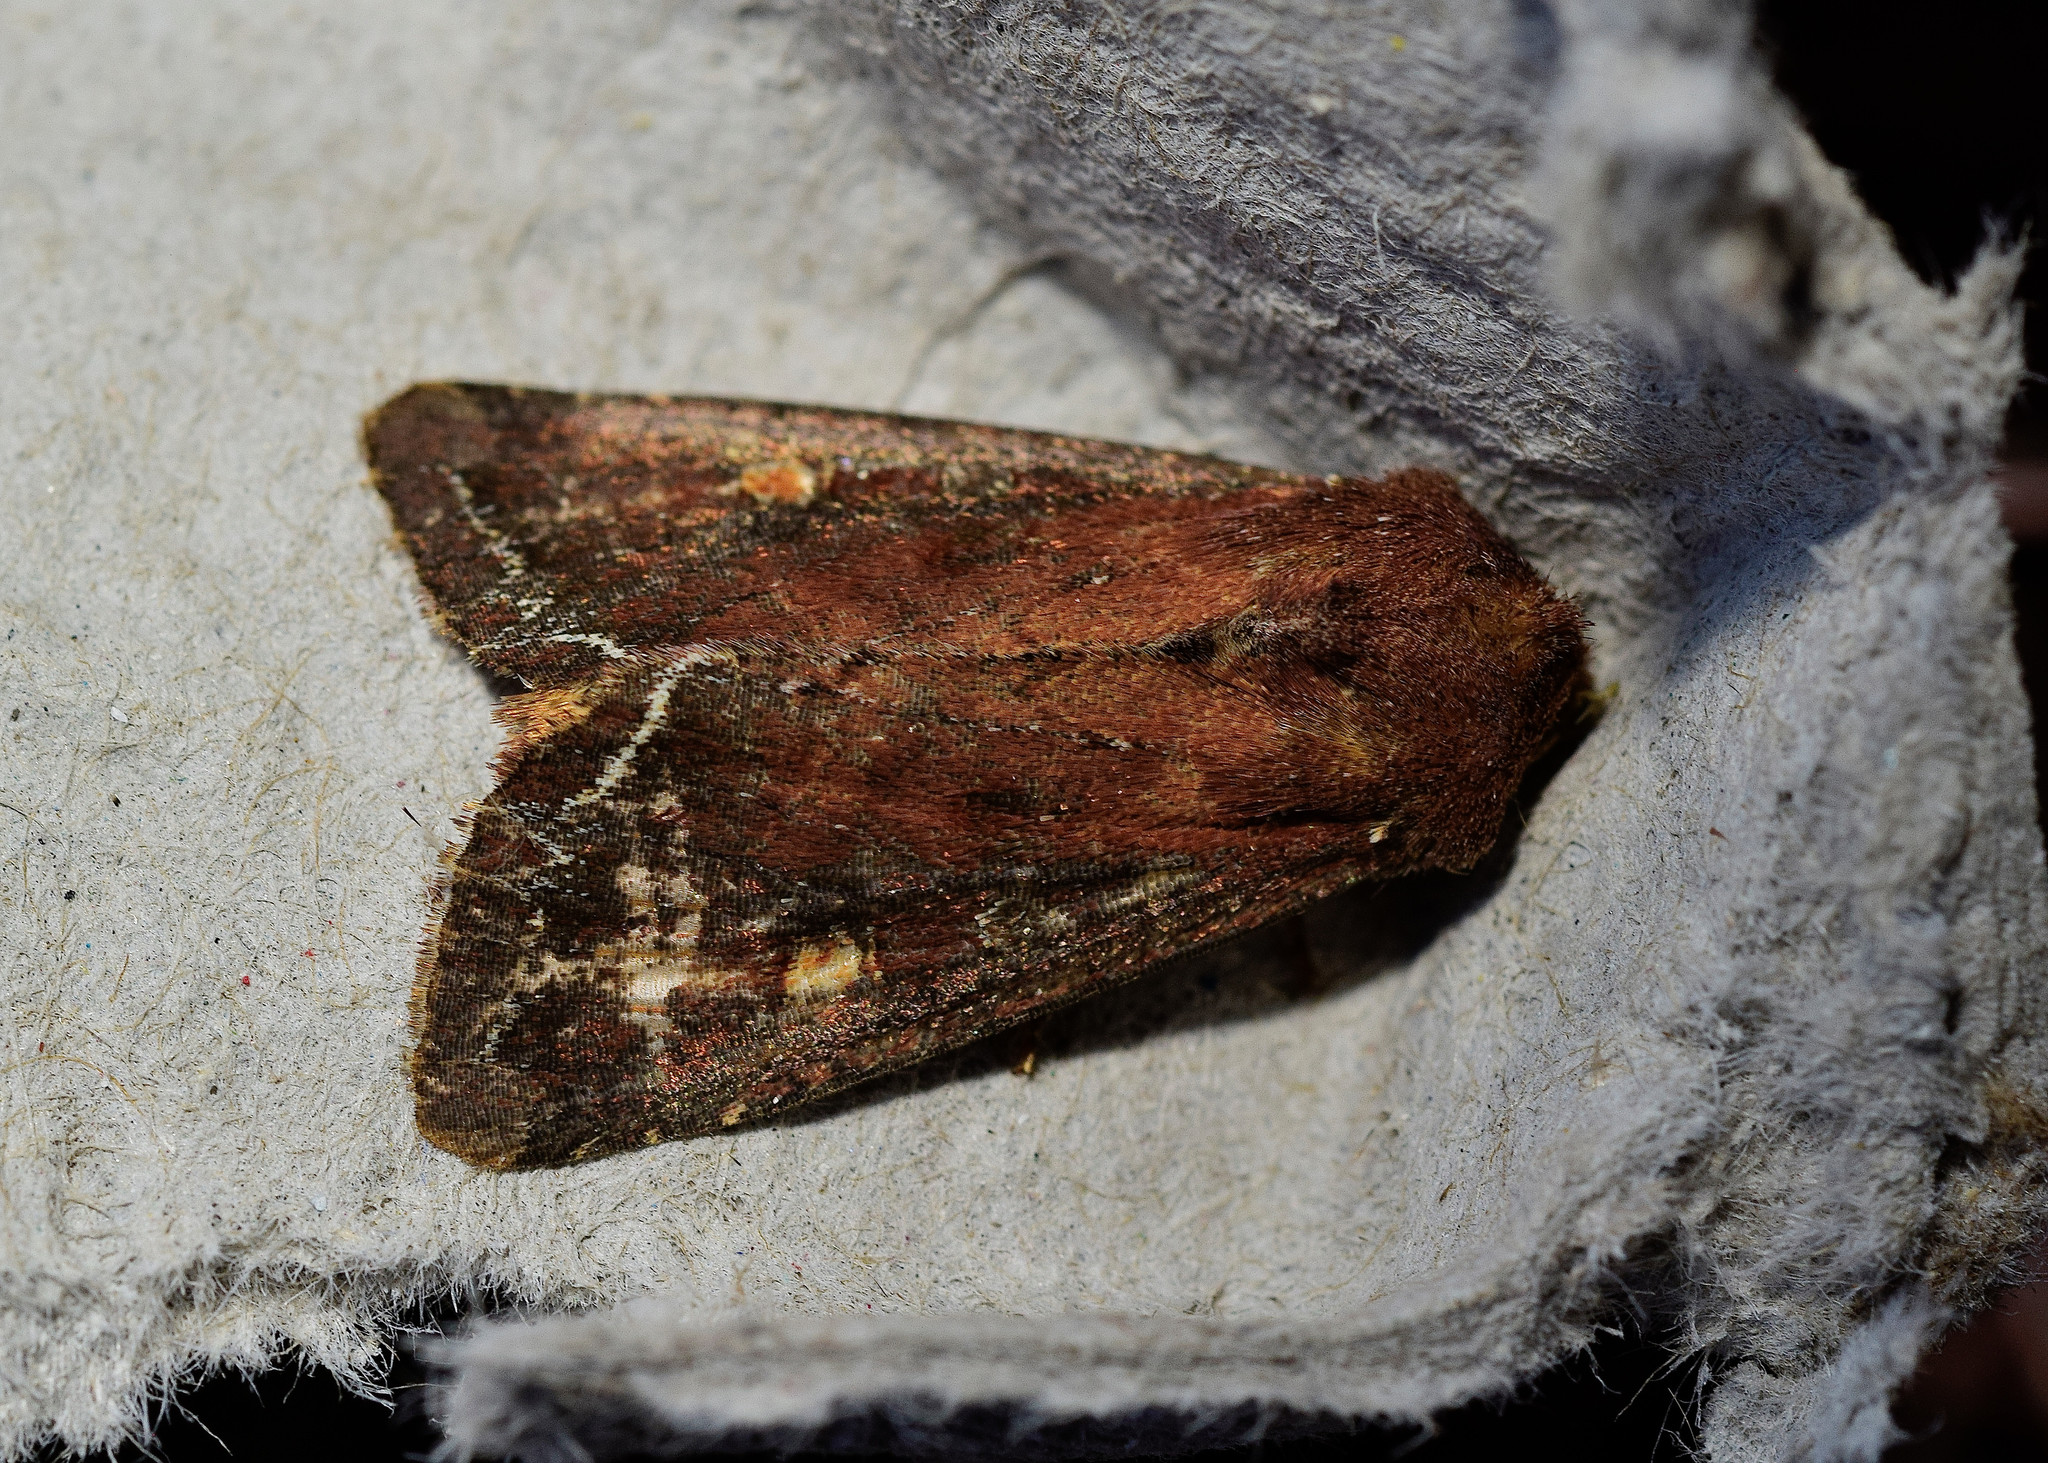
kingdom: Animalia
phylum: Arthropoda
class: Insecta
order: Lepidoptera
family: Noctuidae
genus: Lacanobia
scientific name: Lacanobia oleracea
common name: Bright-line brown-eye
